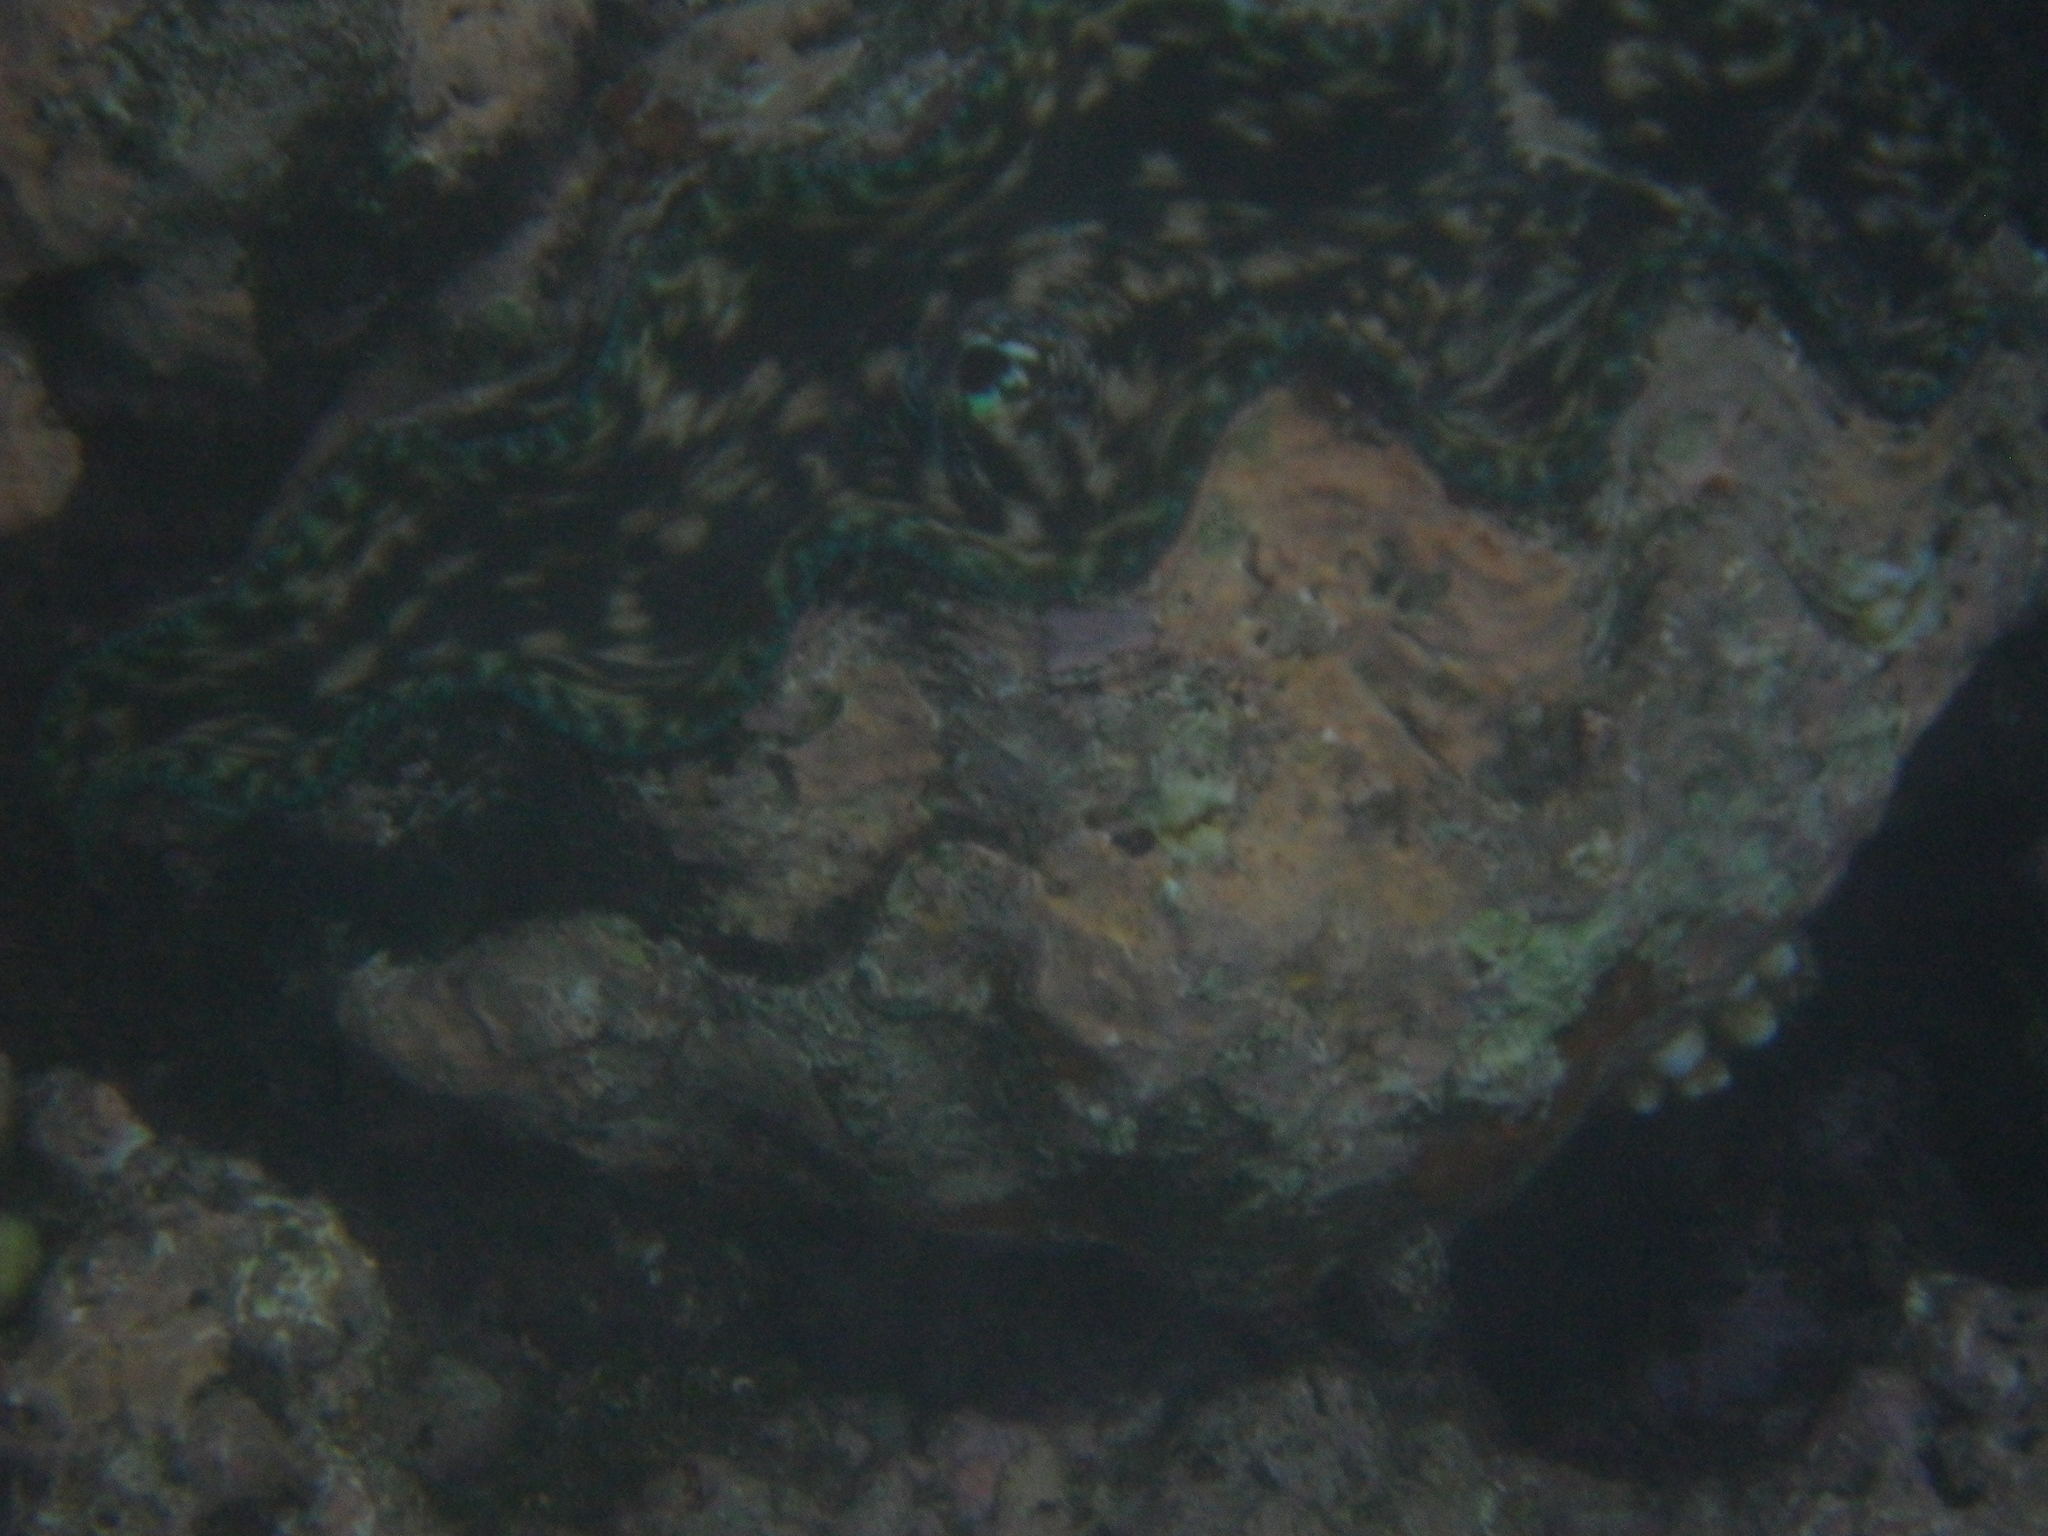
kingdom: Animalia
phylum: Mollusca
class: Bivalvia
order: Cardiida
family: Cardiidae
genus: Tridacna
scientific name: Tridacna derasa
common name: Southern giant clam
